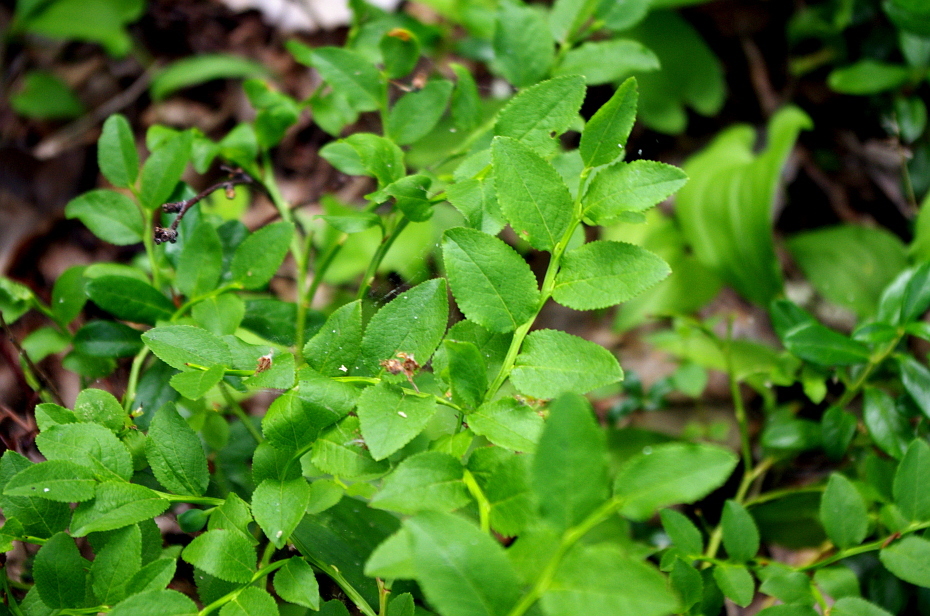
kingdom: Plantae
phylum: Tracheophyta
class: Magnoliopsida
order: Ericales
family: Ericaceae
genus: Vaccinium
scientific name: Vaccinium myrtillus
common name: Bilberry
